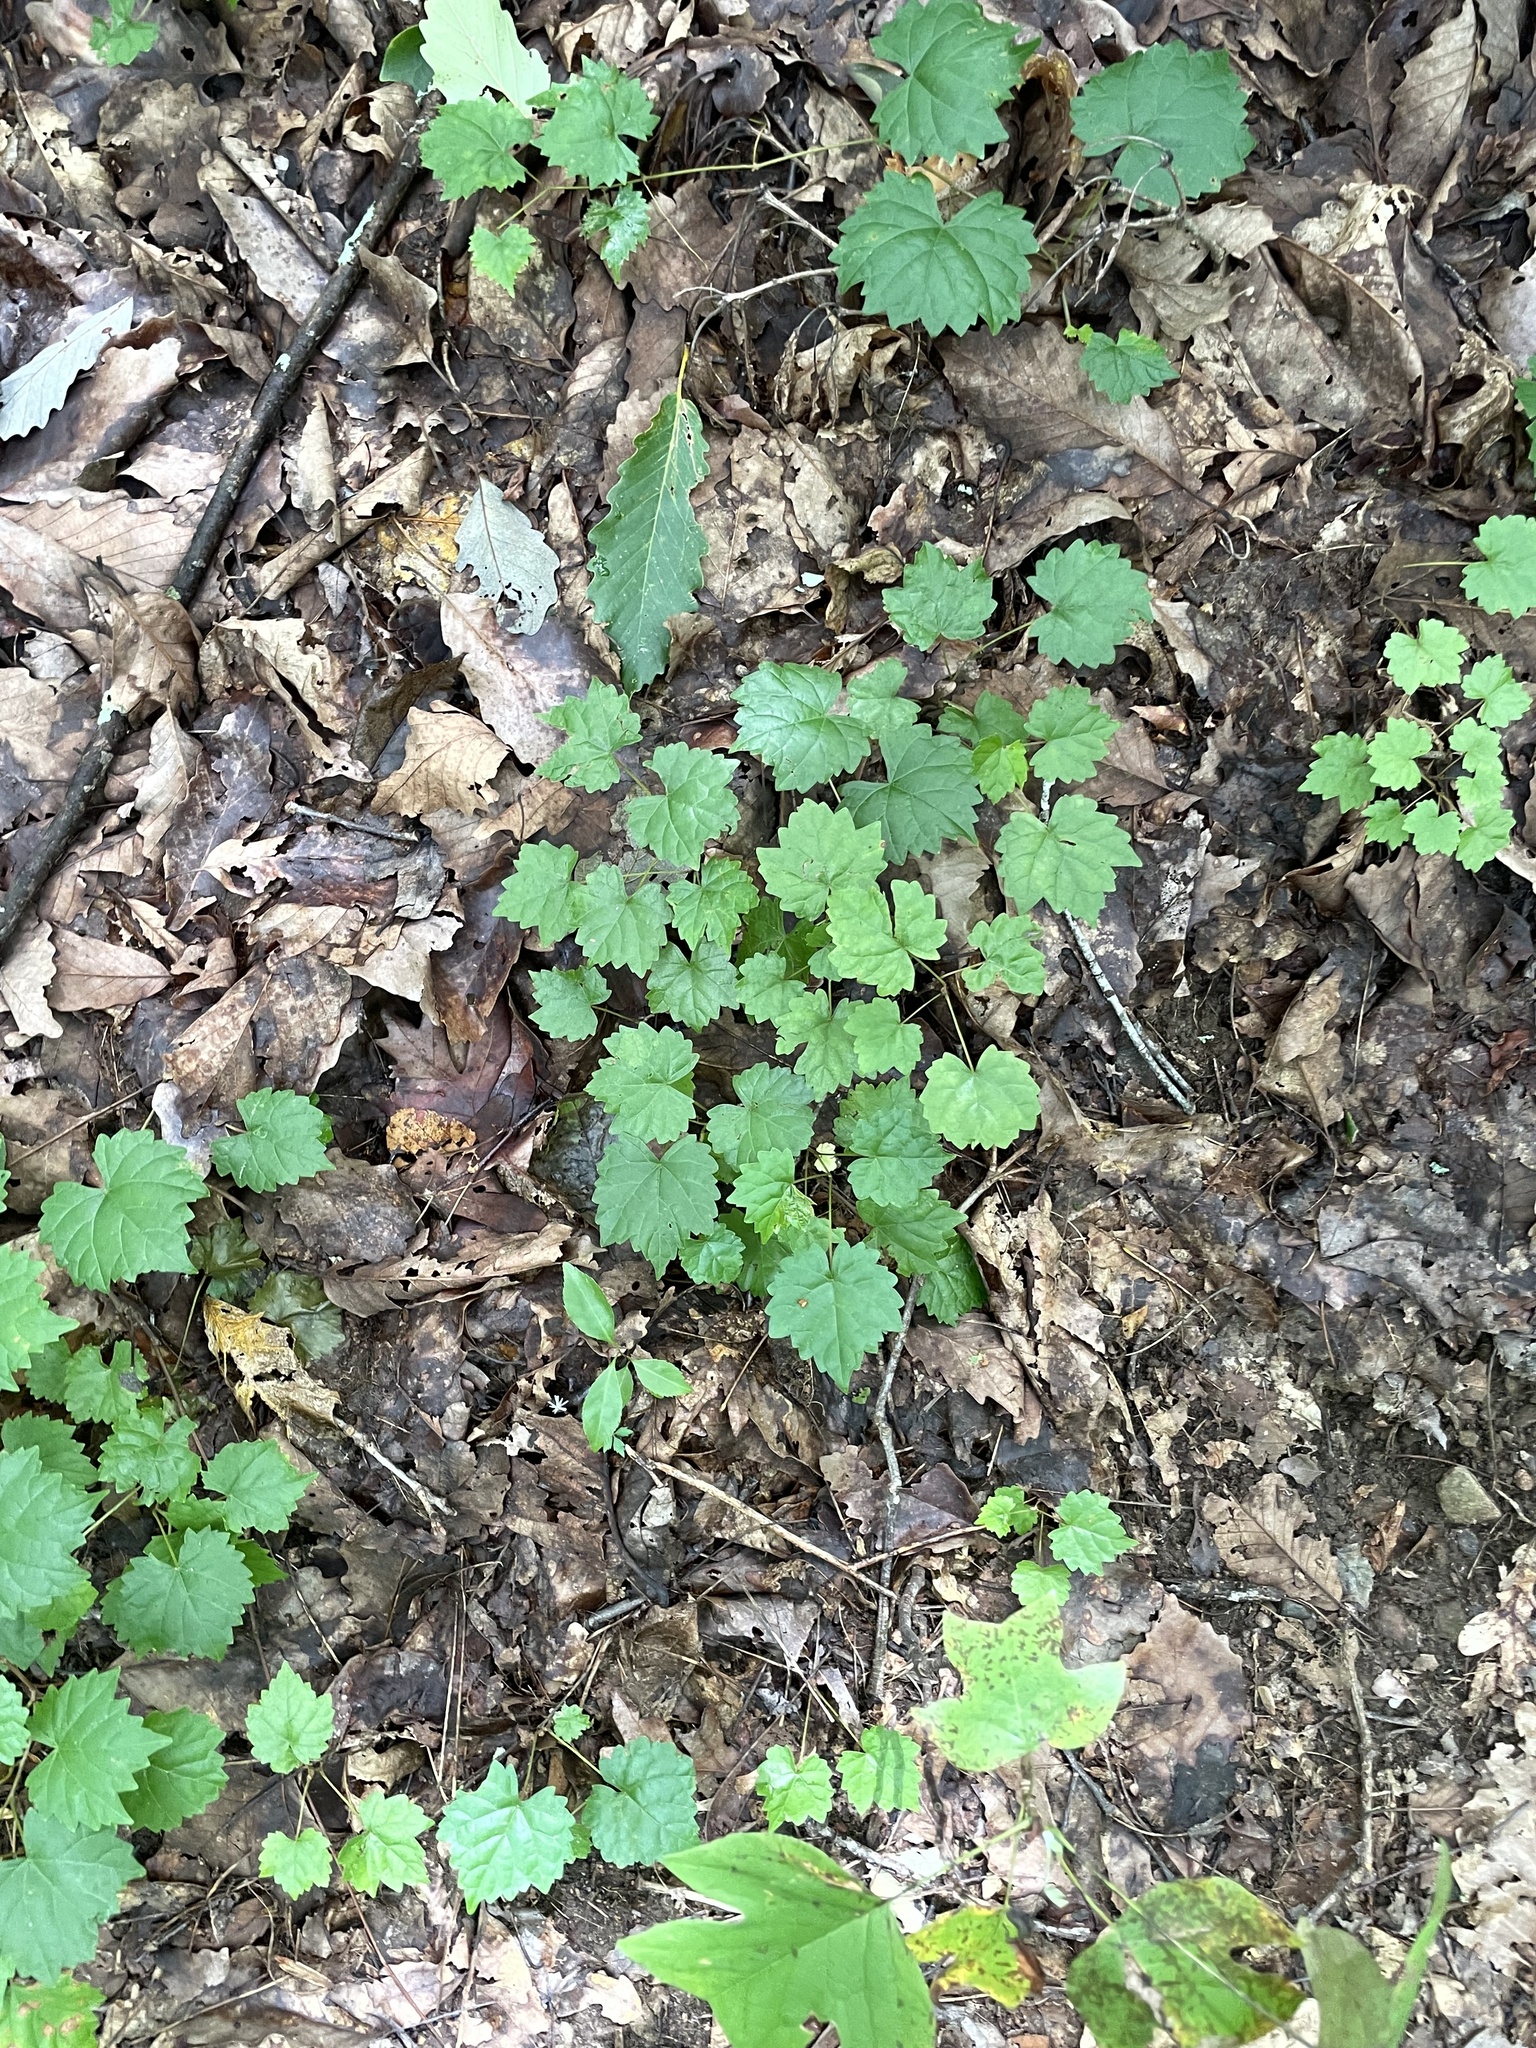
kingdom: Plantae
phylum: Tracheophyta
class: Magnoliopsida
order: Vitales
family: Vitaceae
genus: Vitis
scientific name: Vitis rotundifolia
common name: Muscadine grape
